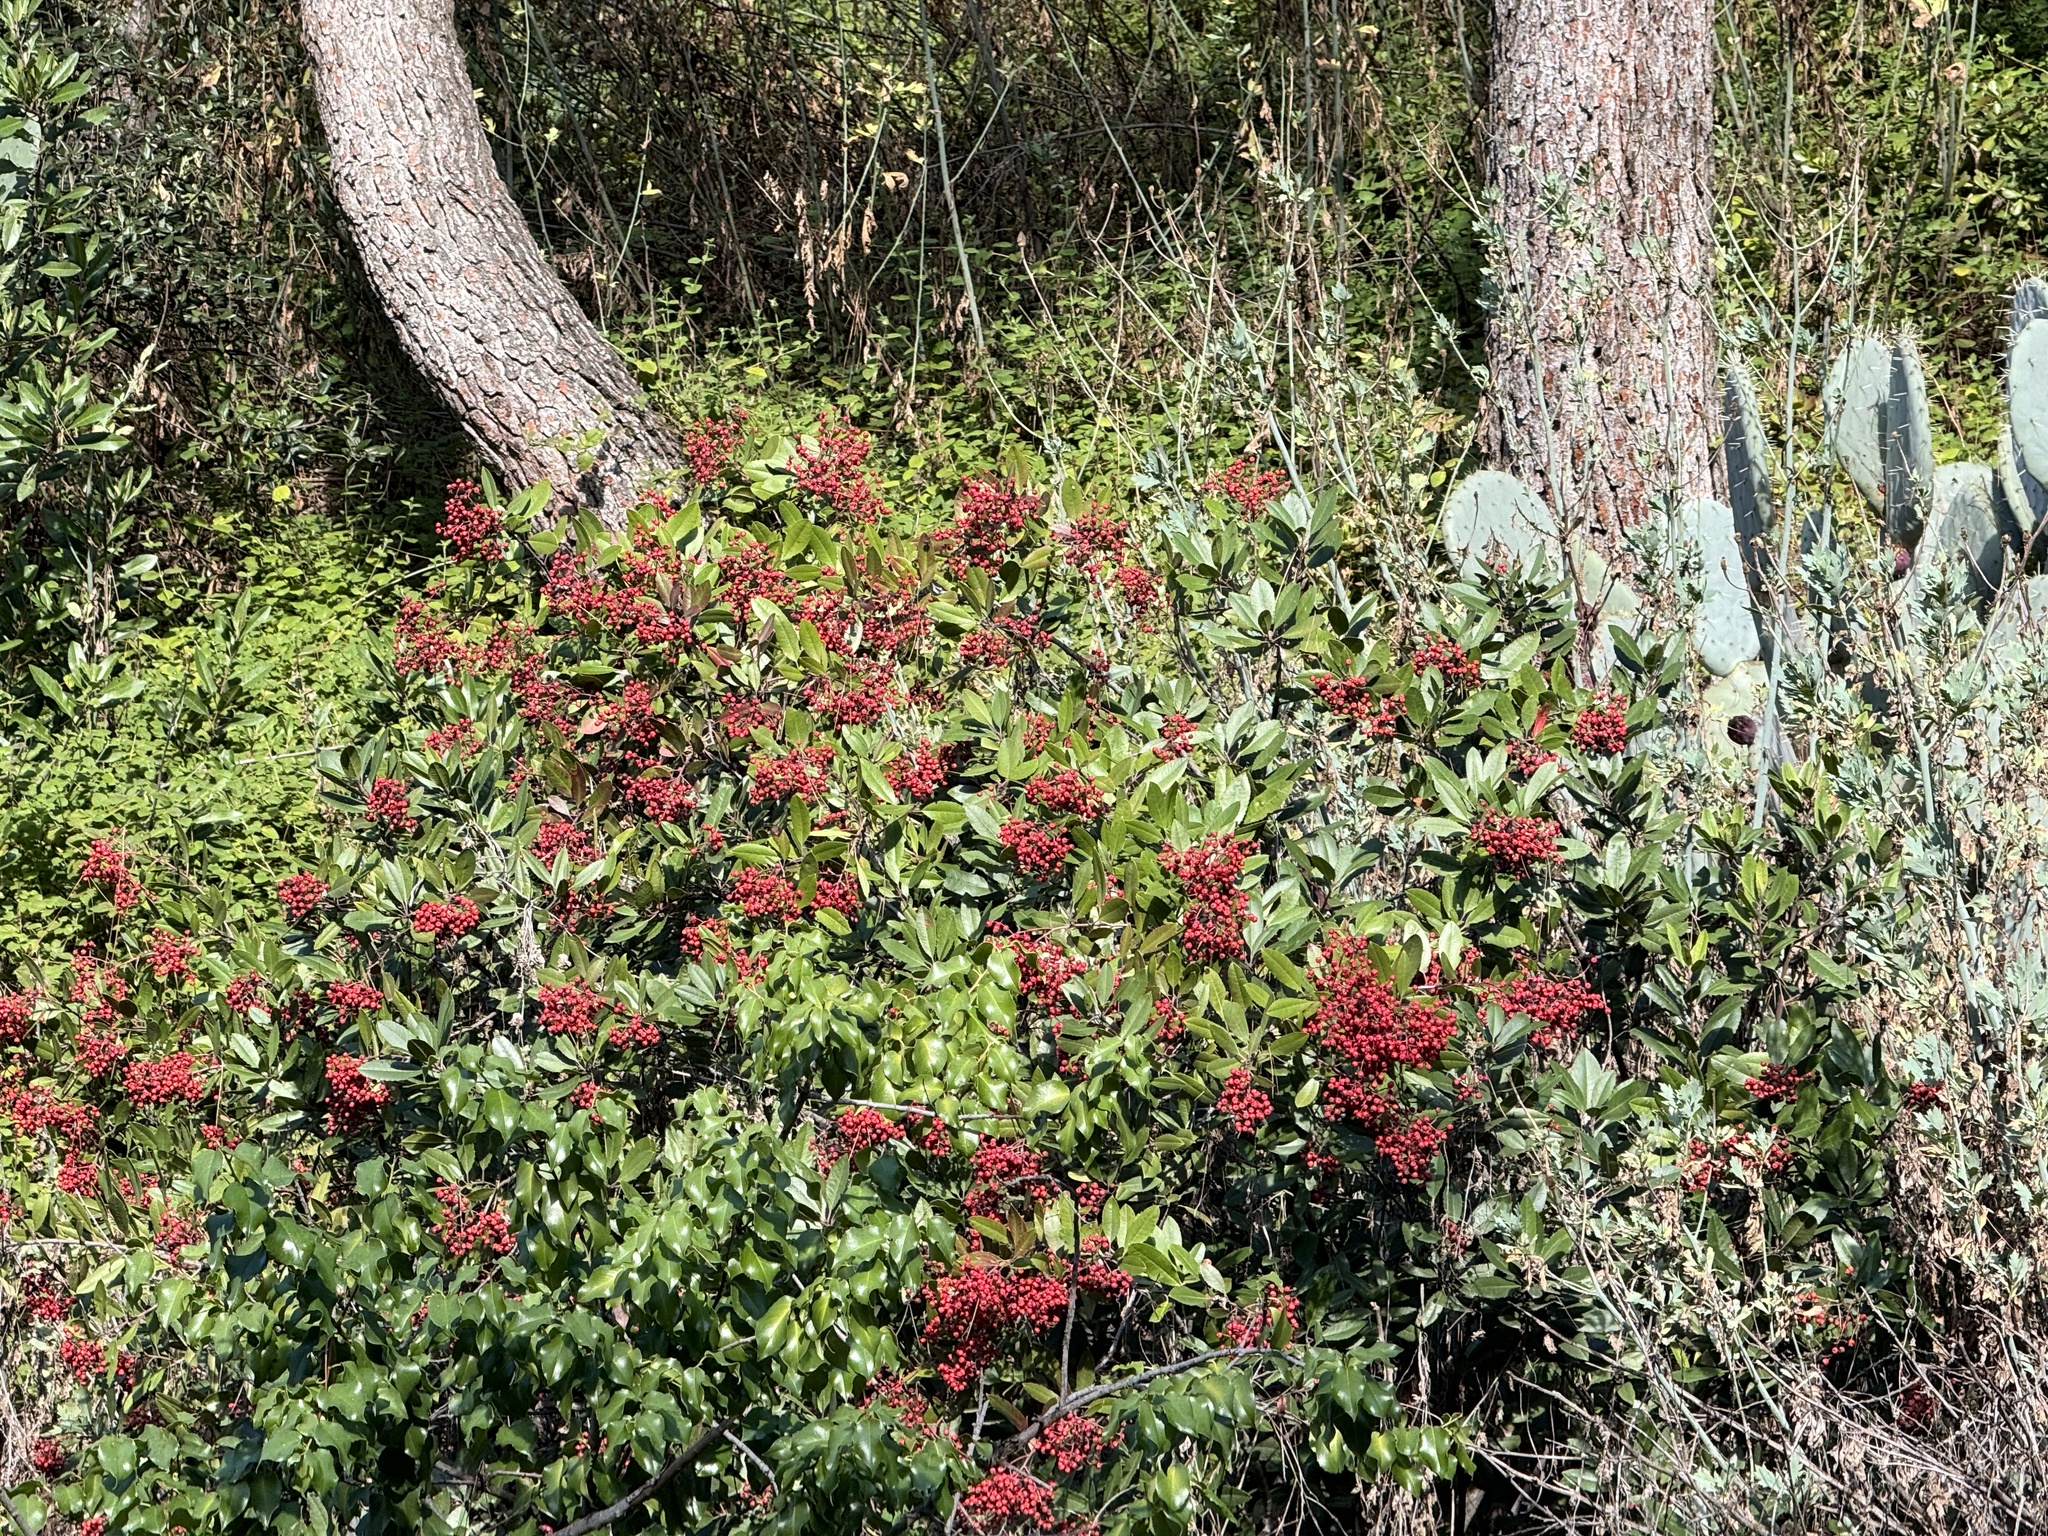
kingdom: Plantae
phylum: Tracheophyta
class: Magnoliopsida
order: Rosales
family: Rosaceae
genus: Heteromeles
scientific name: Heteromeles arbutifolia
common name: California-holly
